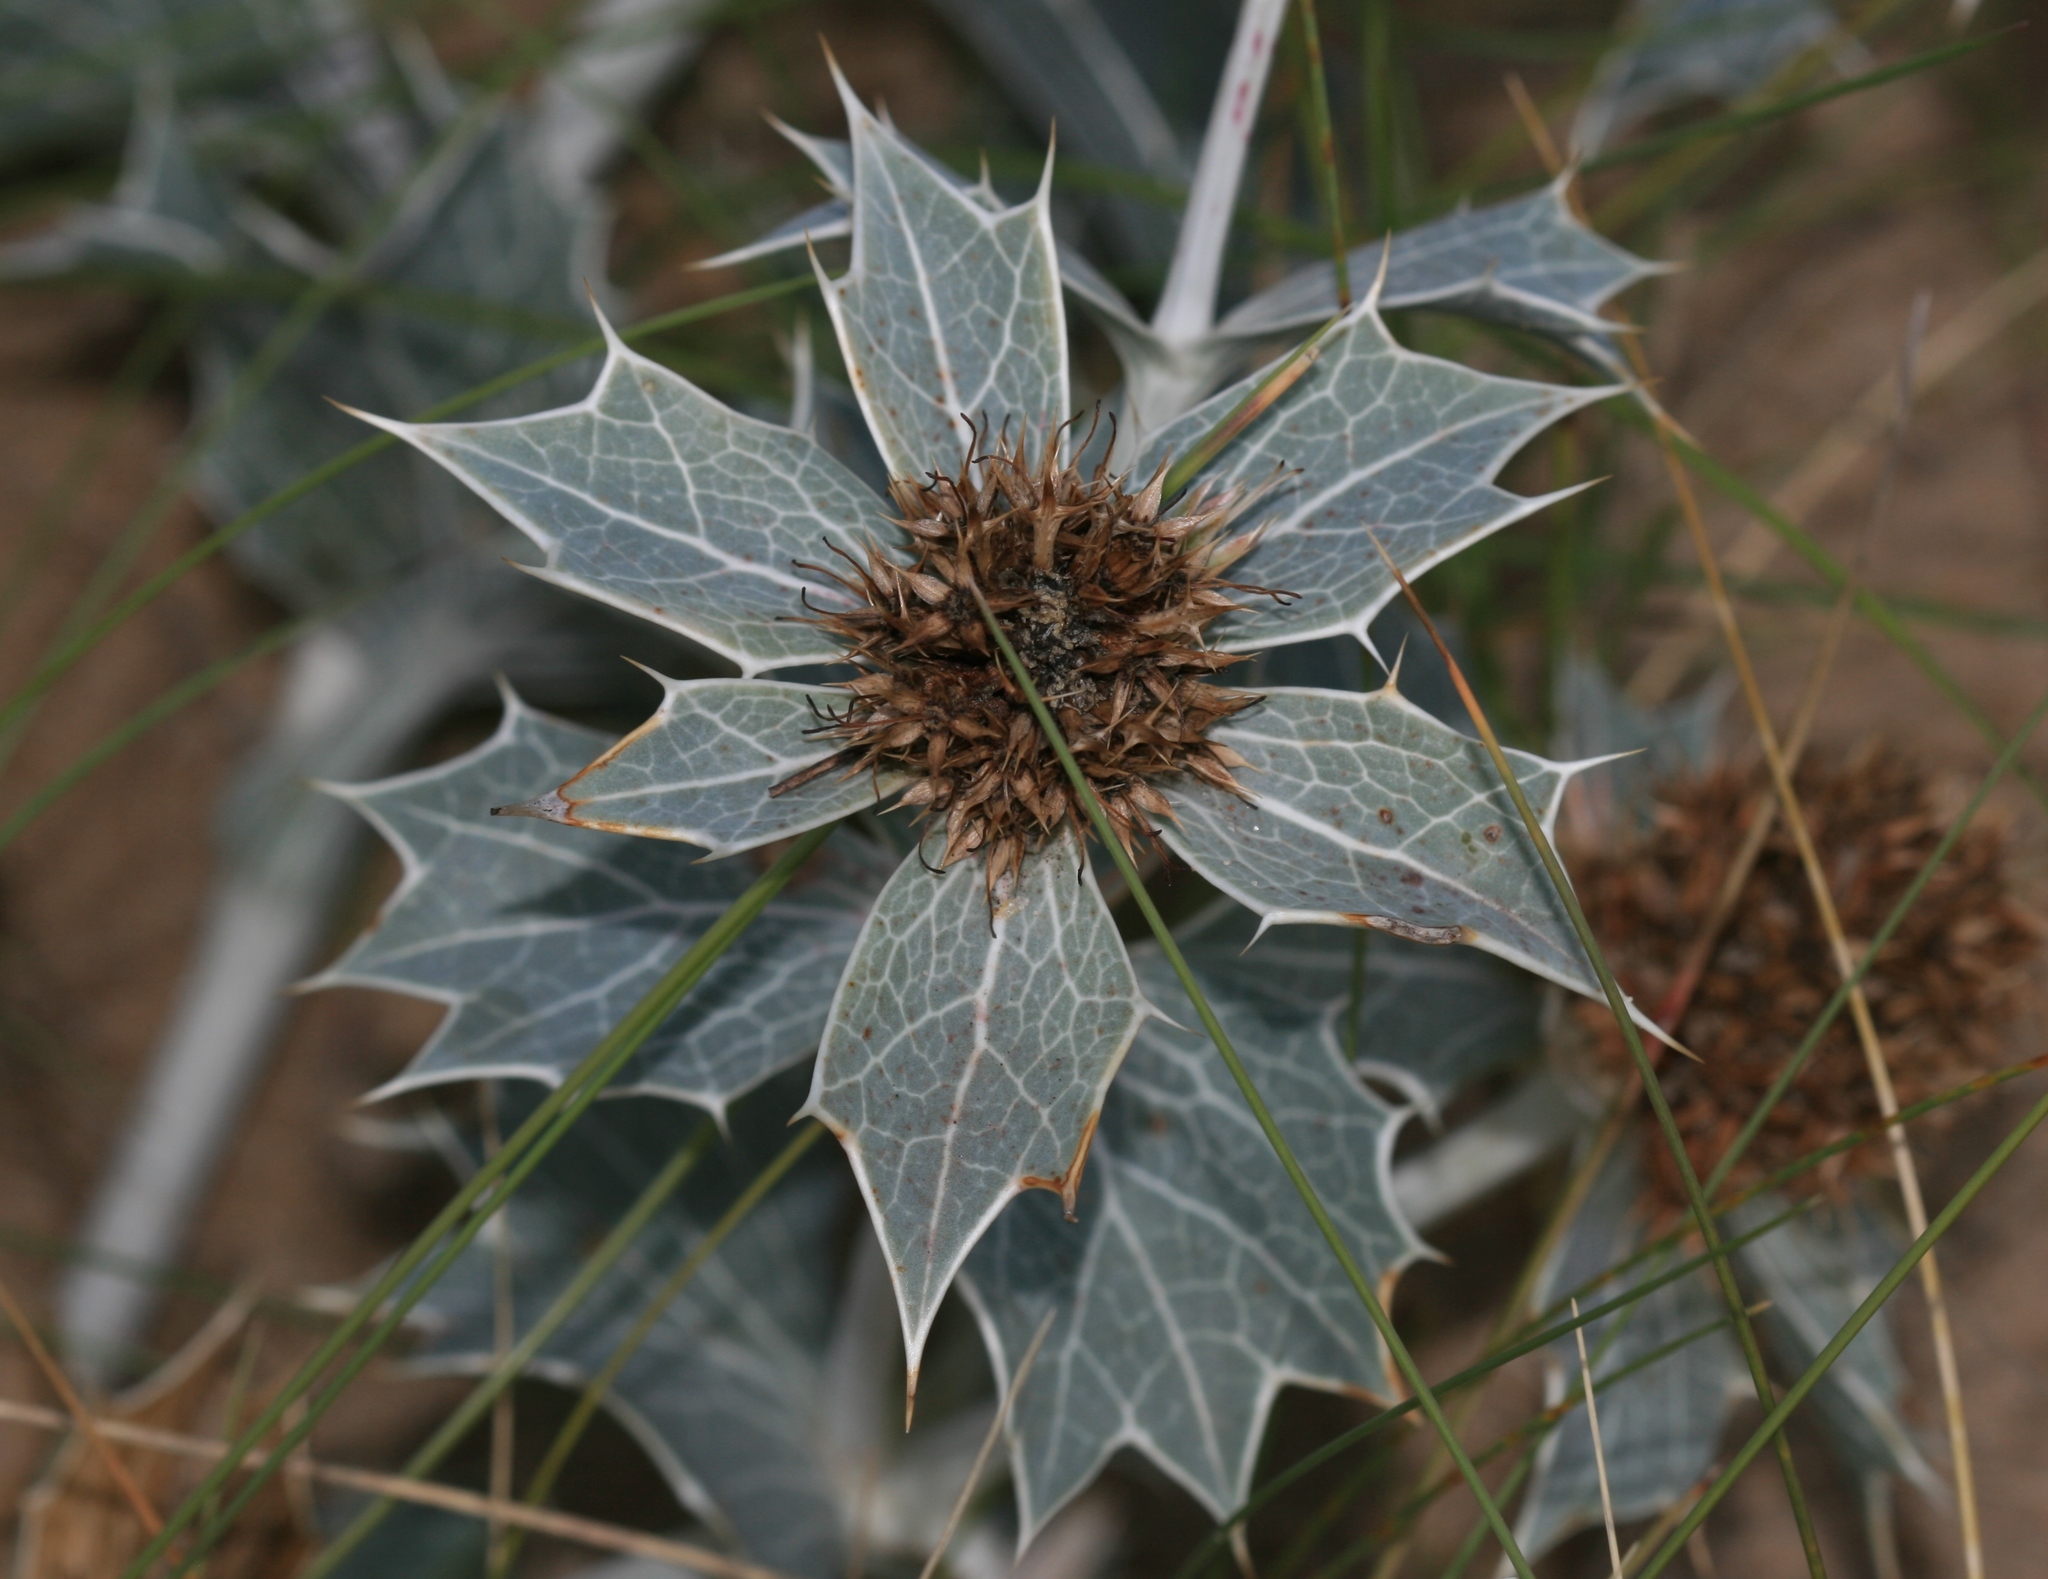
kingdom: Plantae
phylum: Tracheophyta
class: Magnoliopsida
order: Apiales
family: Apiaceae
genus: Eryngium
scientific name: Eryngium maritimum
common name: Sea-holly
